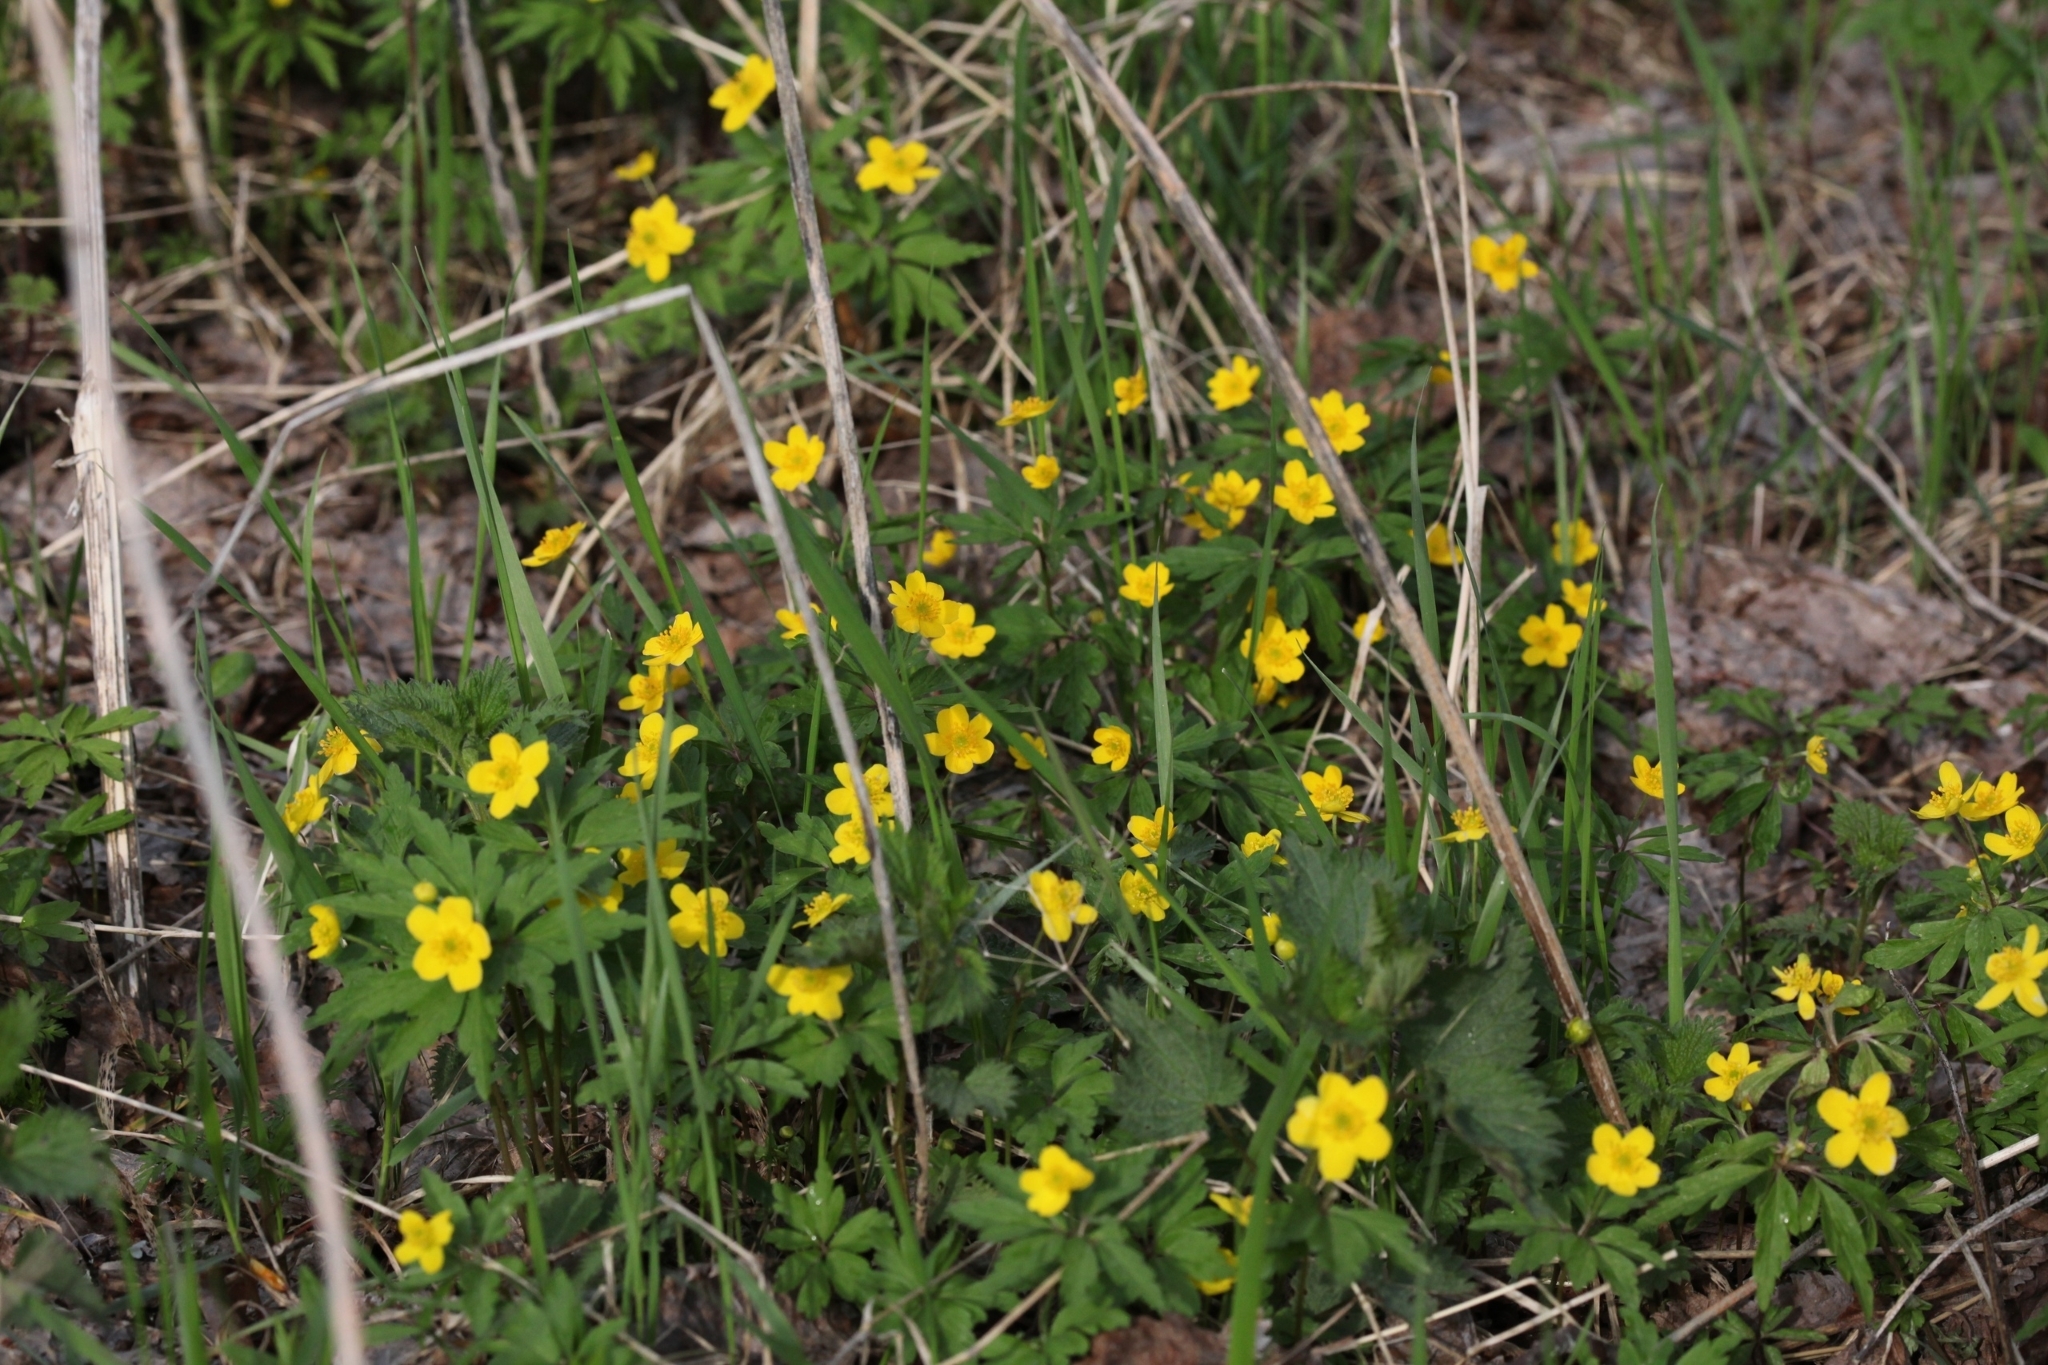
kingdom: Plantae
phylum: Tracheophyta
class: Magnoliopsida
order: Ranunculales
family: Ranunculaceae
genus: Anemone
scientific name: Anemone ranunculoides
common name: Yellow anemone
